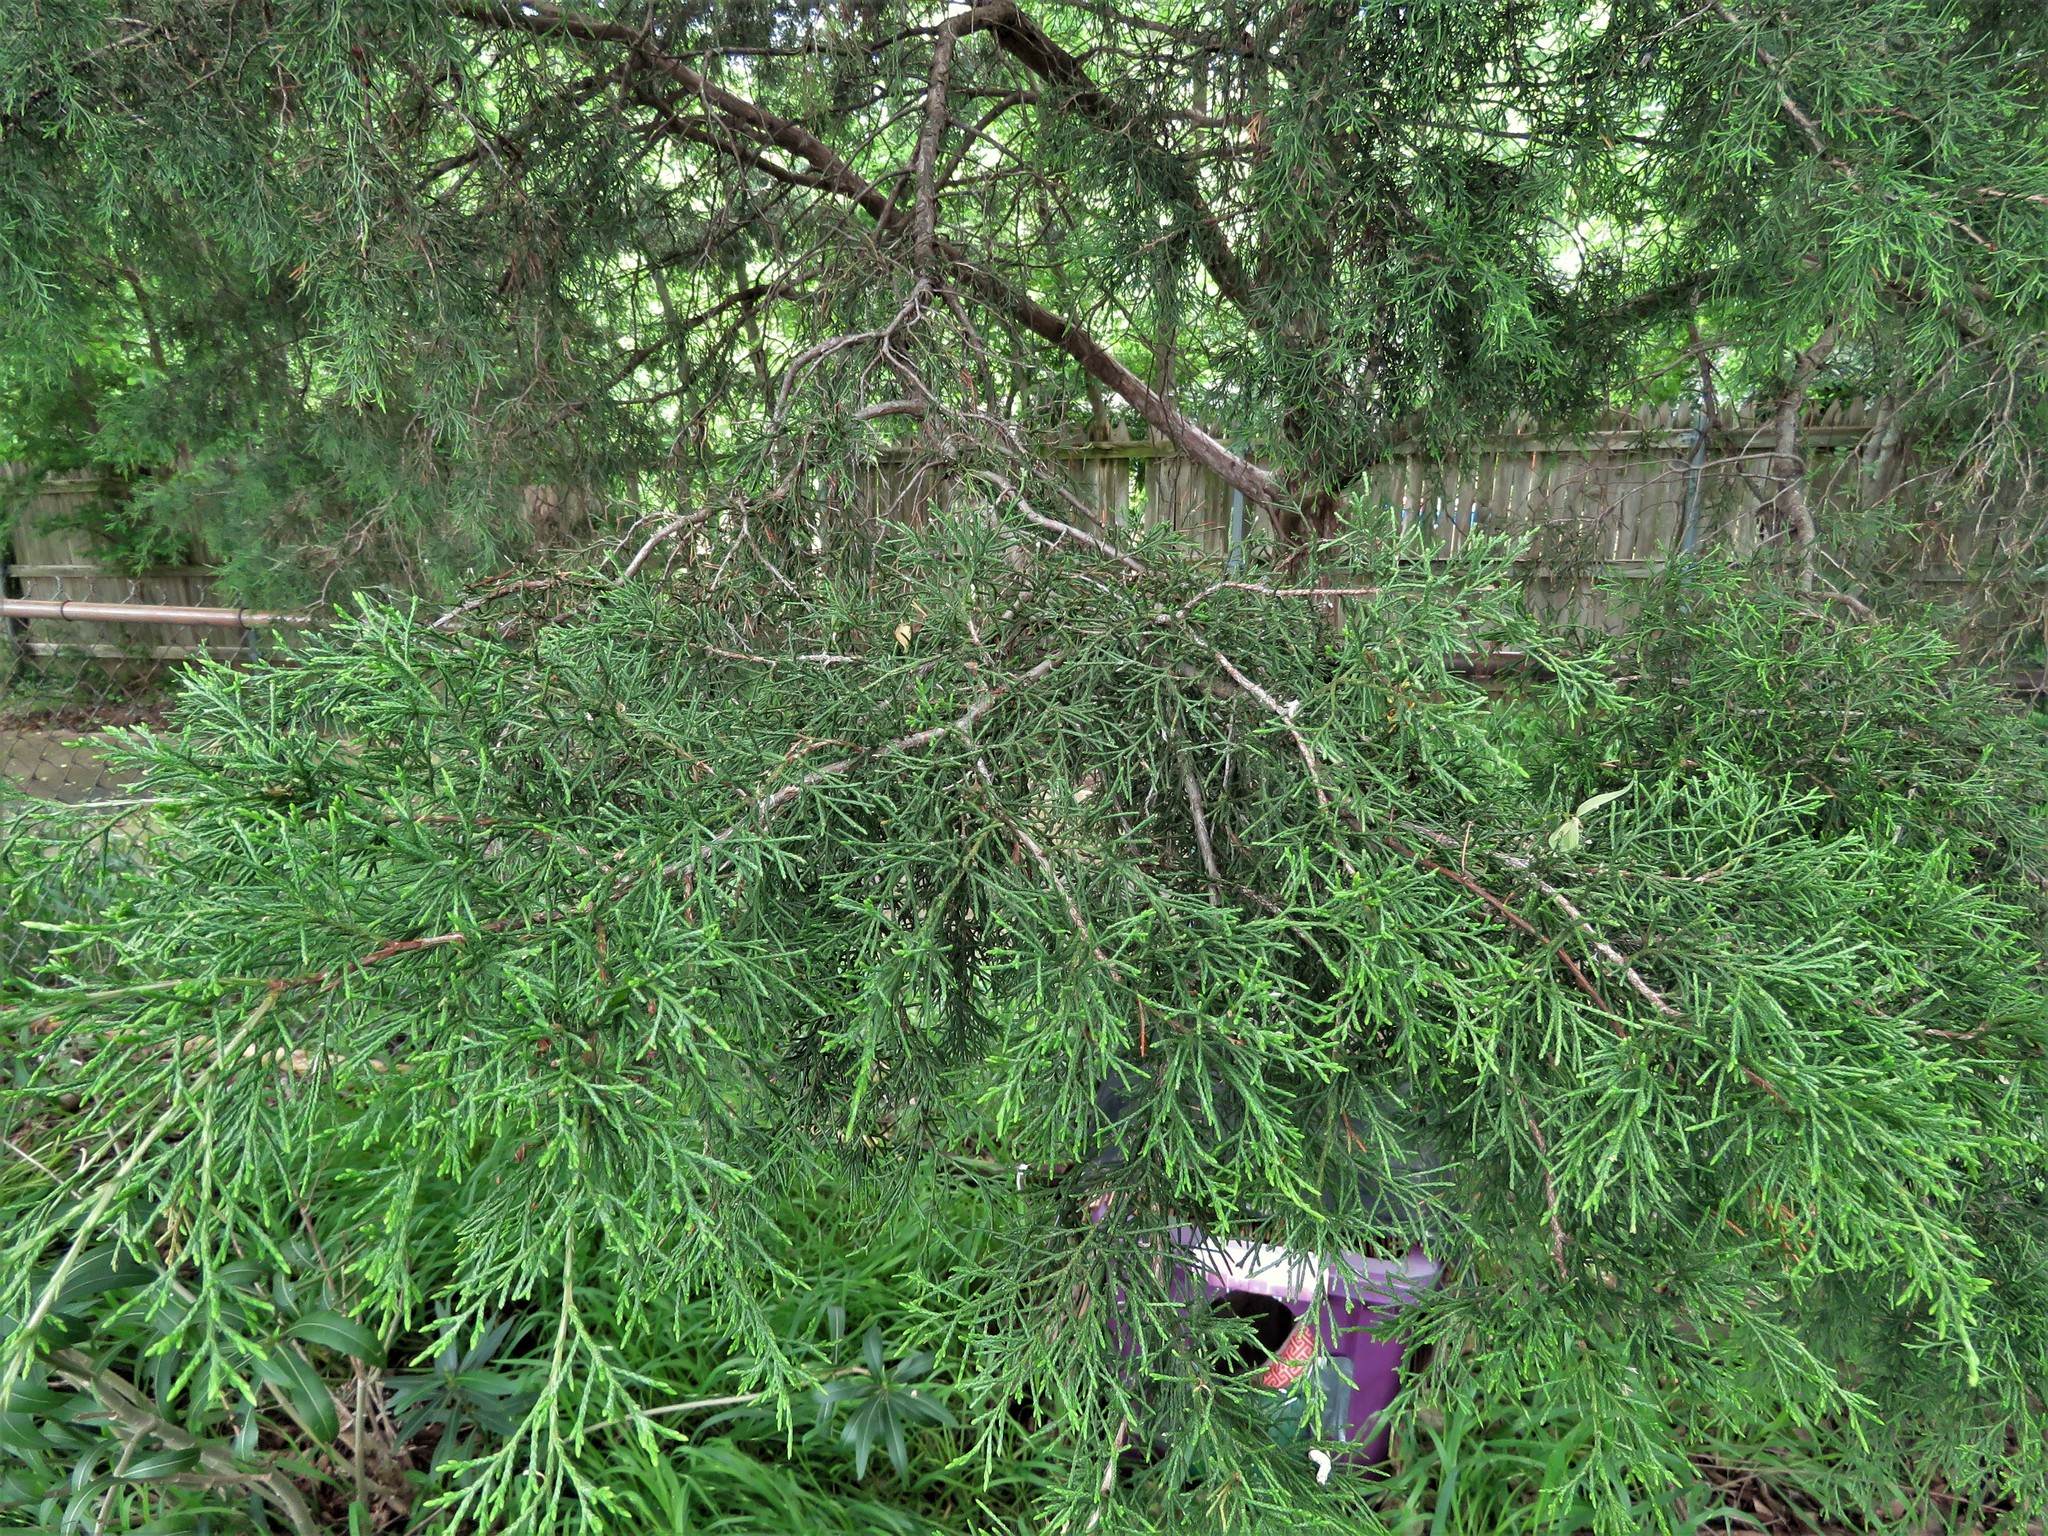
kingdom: Plantae
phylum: Tracheophyta
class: Pinopsida
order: Pinales
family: Cupressaceae
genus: Juniperus
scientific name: Juniperus virginiana
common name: Red juniper
